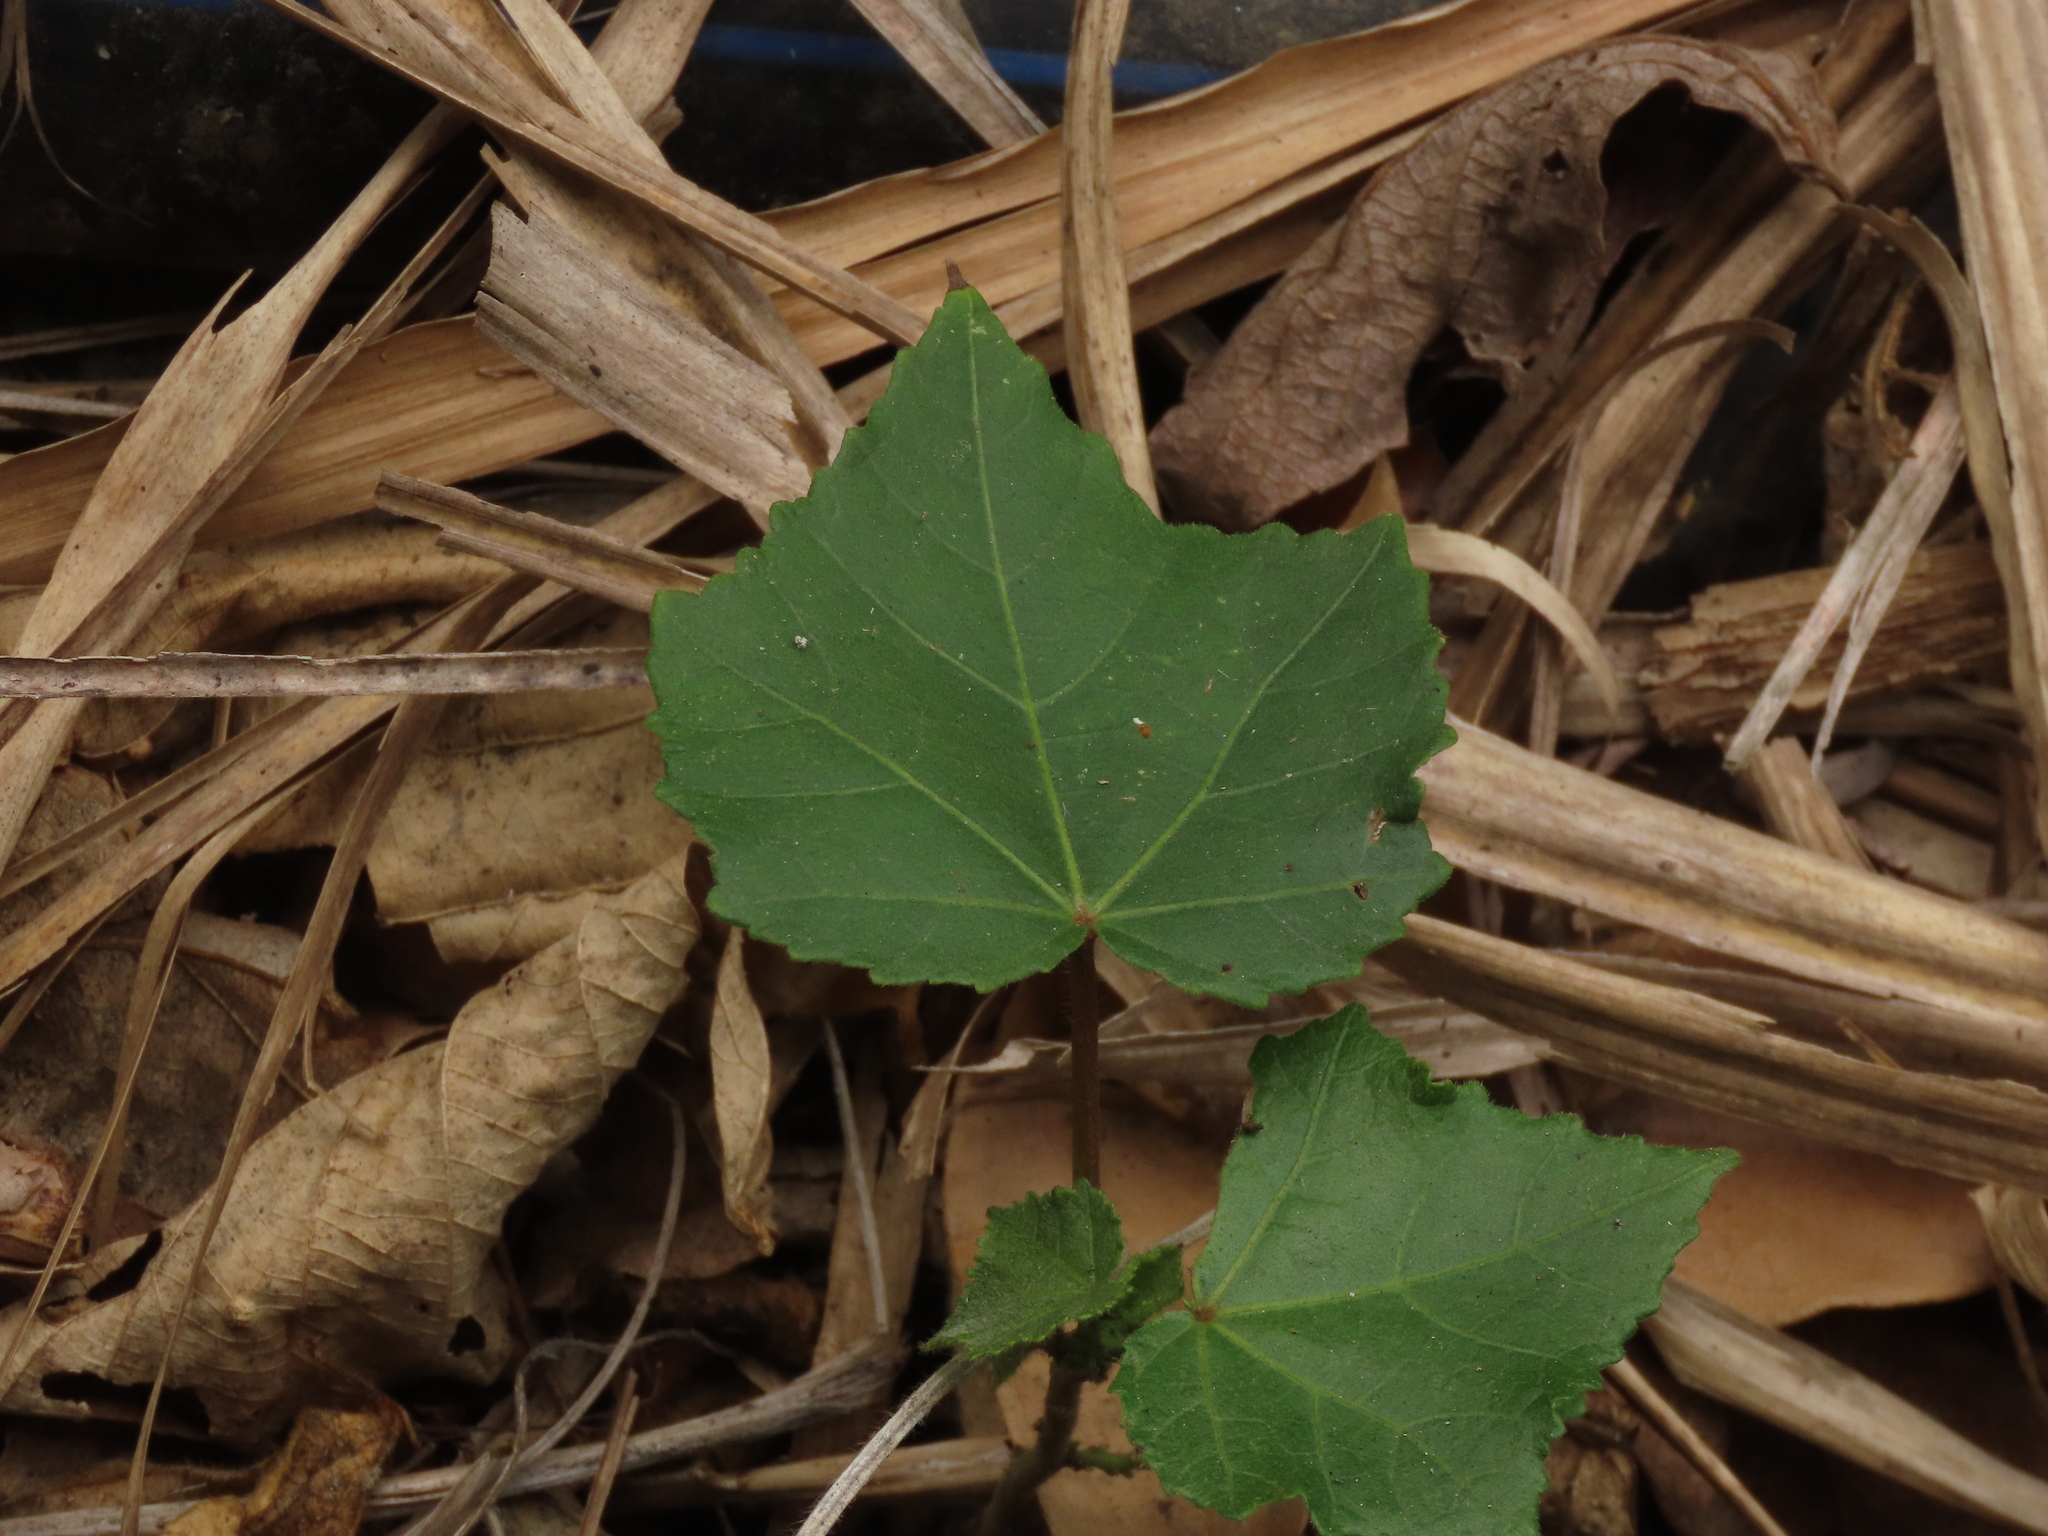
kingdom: Plantae
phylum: Tracheophyta
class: Magnoliopsida
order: Malvales
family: Malvaceae
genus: Hibiscus
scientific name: Hibiscus taiwanensis
